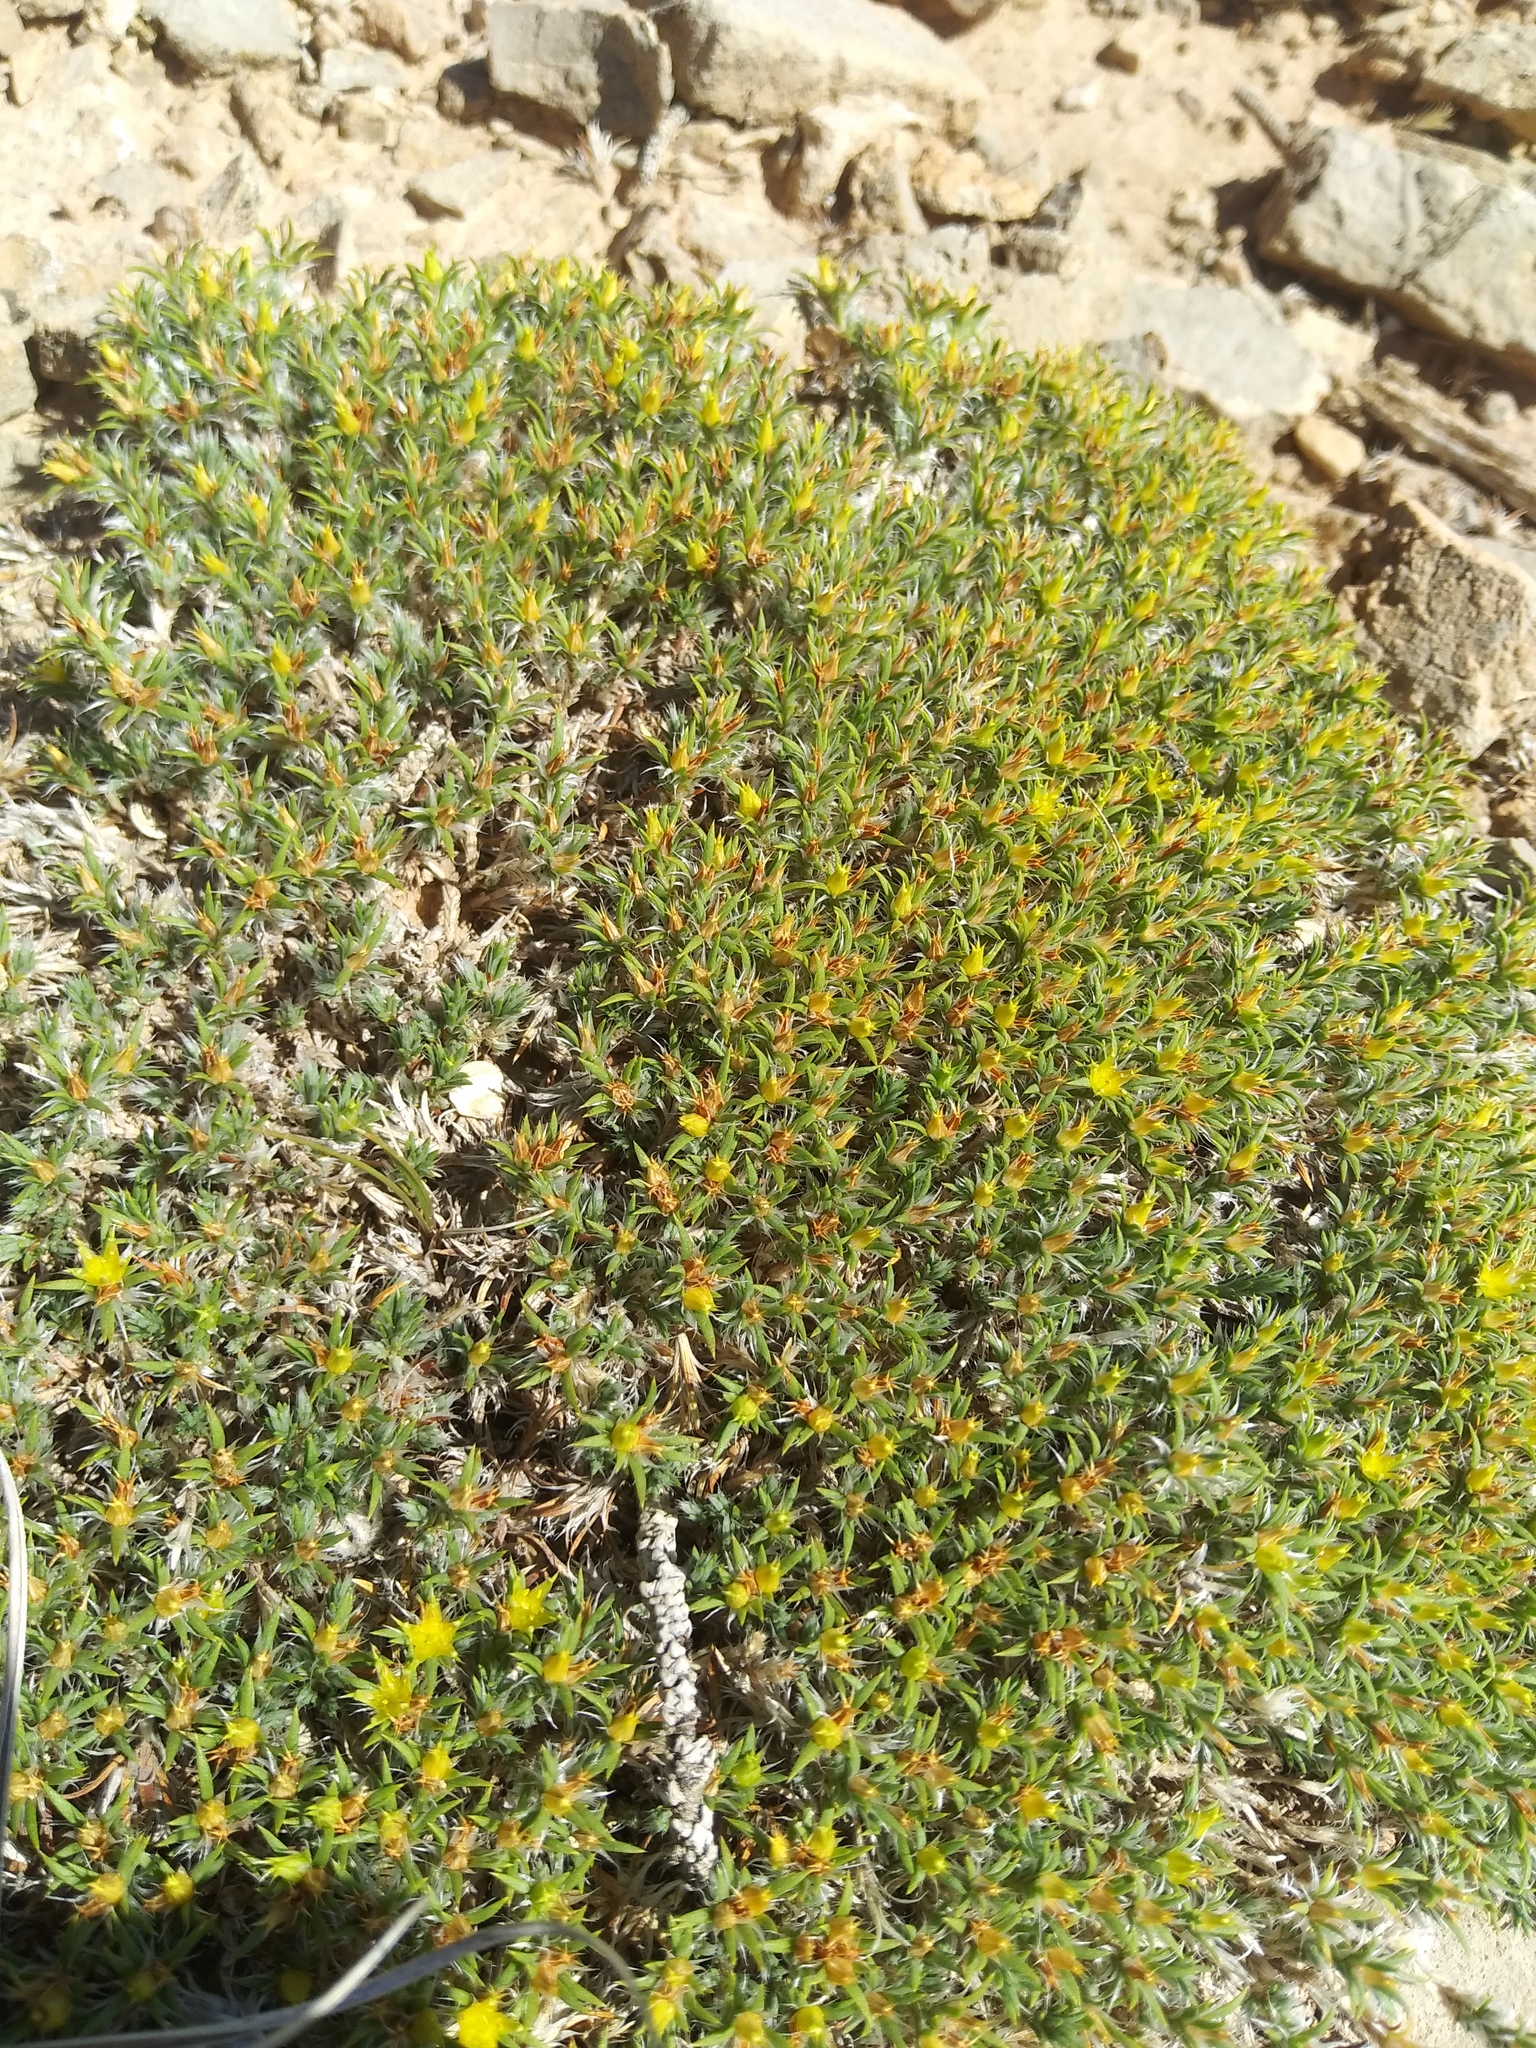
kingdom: Plantae
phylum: Tracheophyta
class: Magnoliopsida
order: Caryophyllales
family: Caryophyllaceae
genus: Paronychia
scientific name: Paronychia sessiliflora
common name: Creeping nailwort
